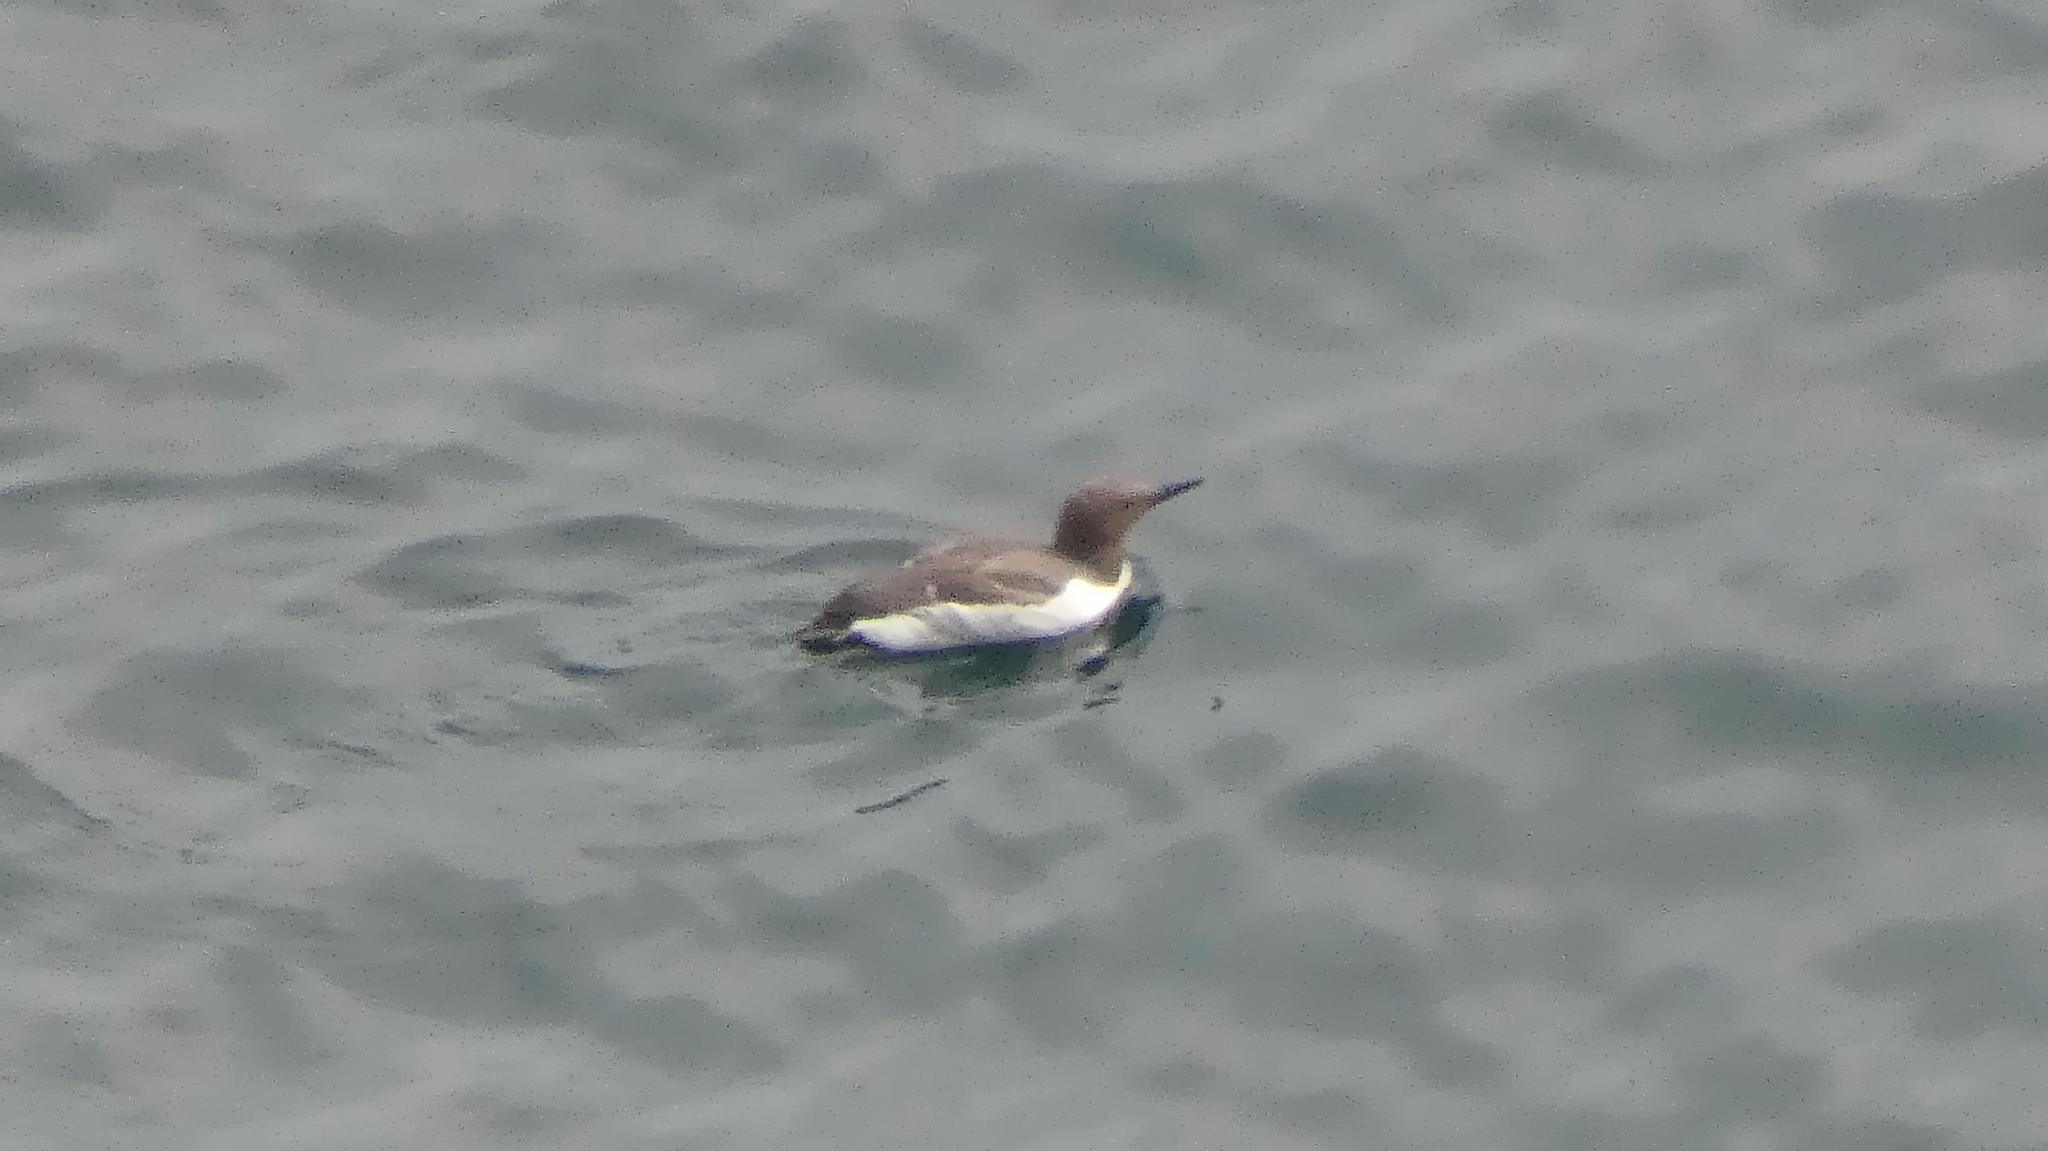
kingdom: Animalia
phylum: Chordata
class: Aves
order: Charadriiformes
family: Alcidae
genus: Uria
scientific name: Uria aalge
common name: Common murre
